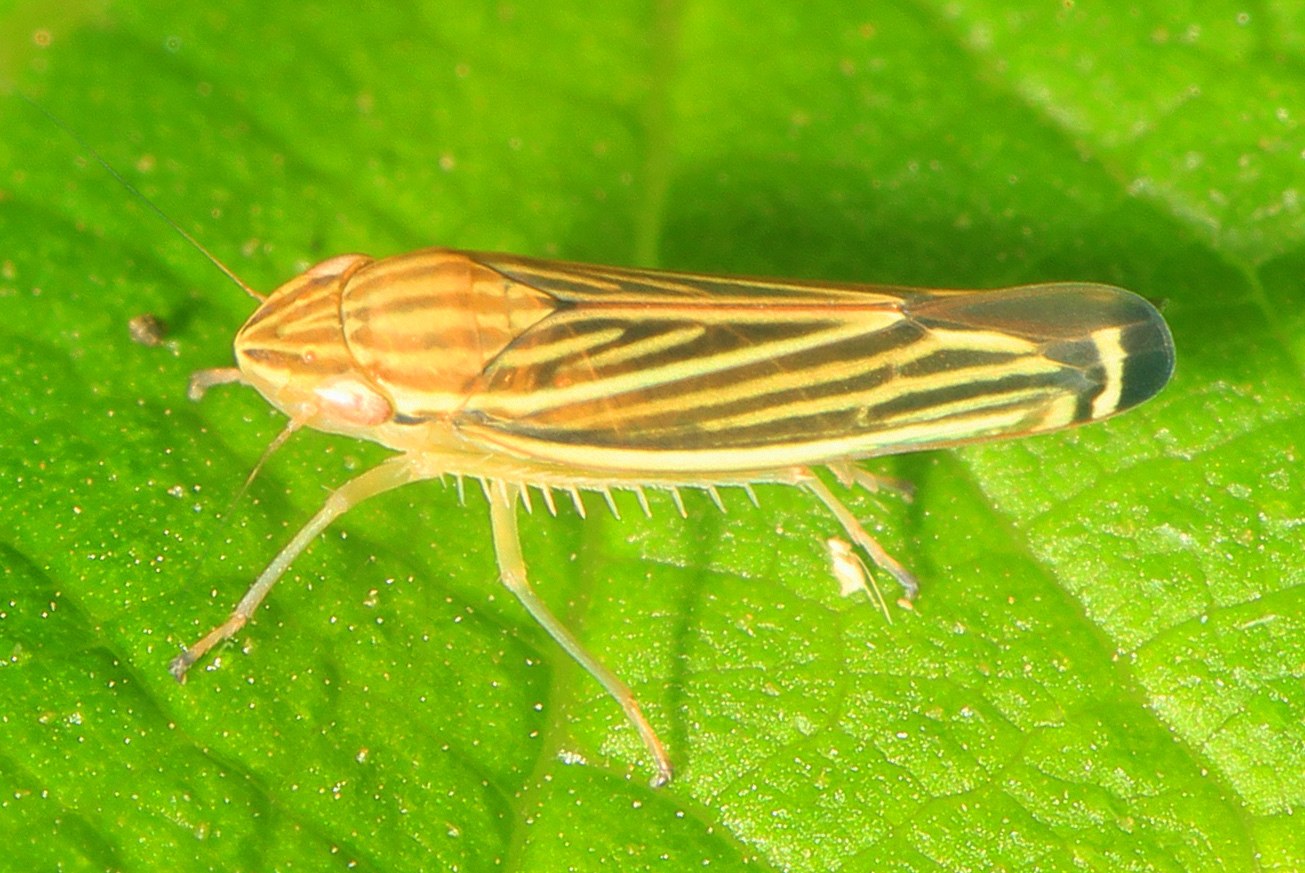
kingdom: Animalia
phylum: Arthropoda
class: Insecta
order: Hemiptera
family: Cicadellidae
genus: Sibovia
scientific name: Sibovia occatoria
